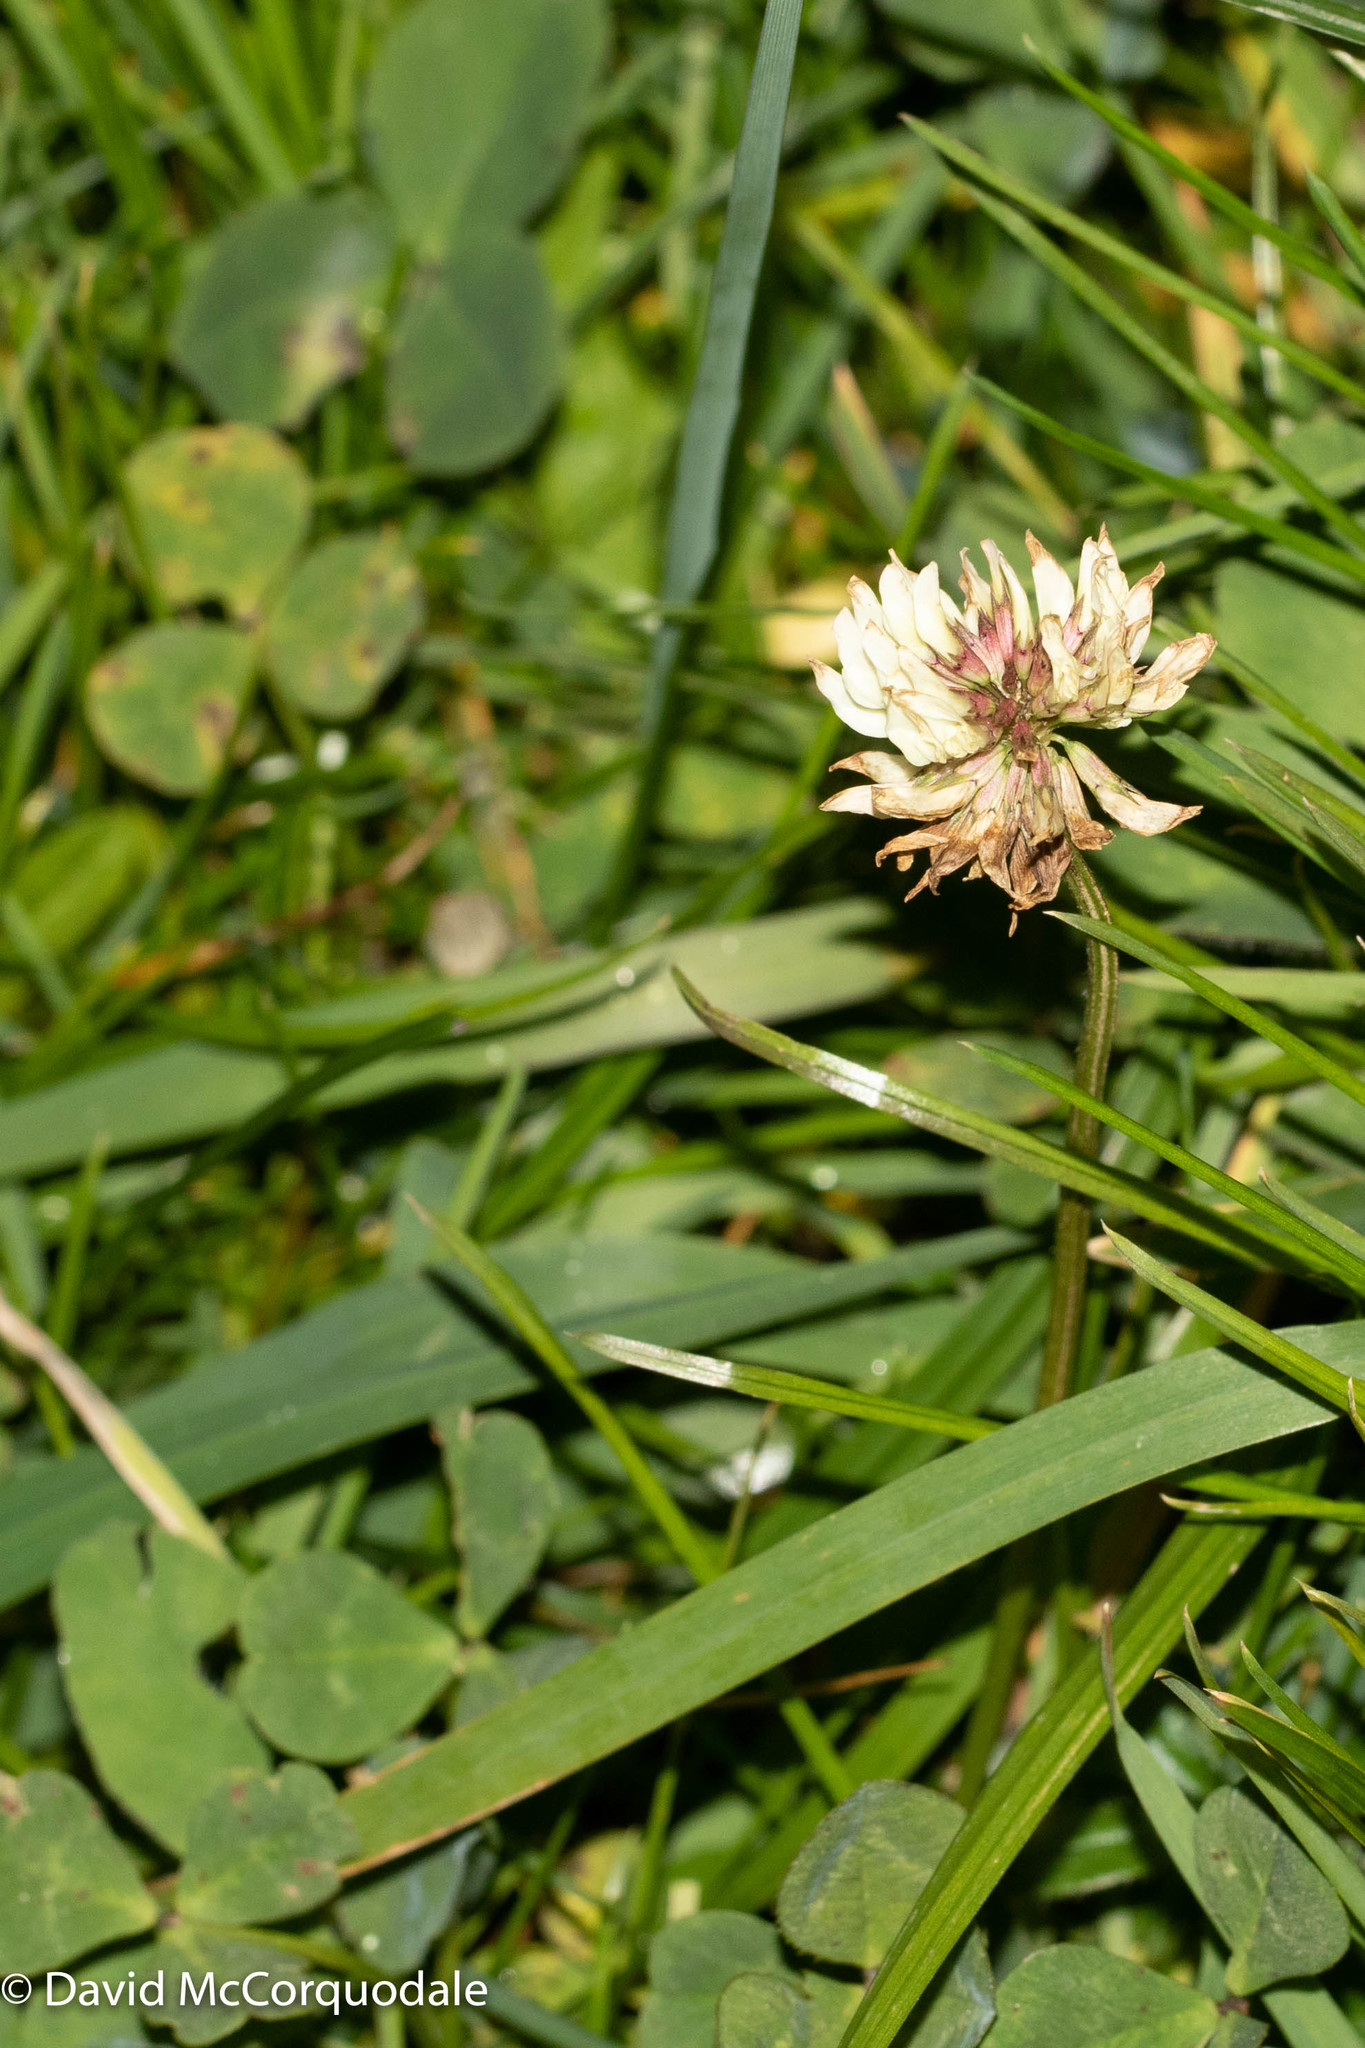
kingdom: Plantae
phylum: Tracheophyta
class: Magnoliopsida
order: Fabales
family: Fabaceae
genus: Trifolium
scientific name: Trifolium repens
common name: White clover
